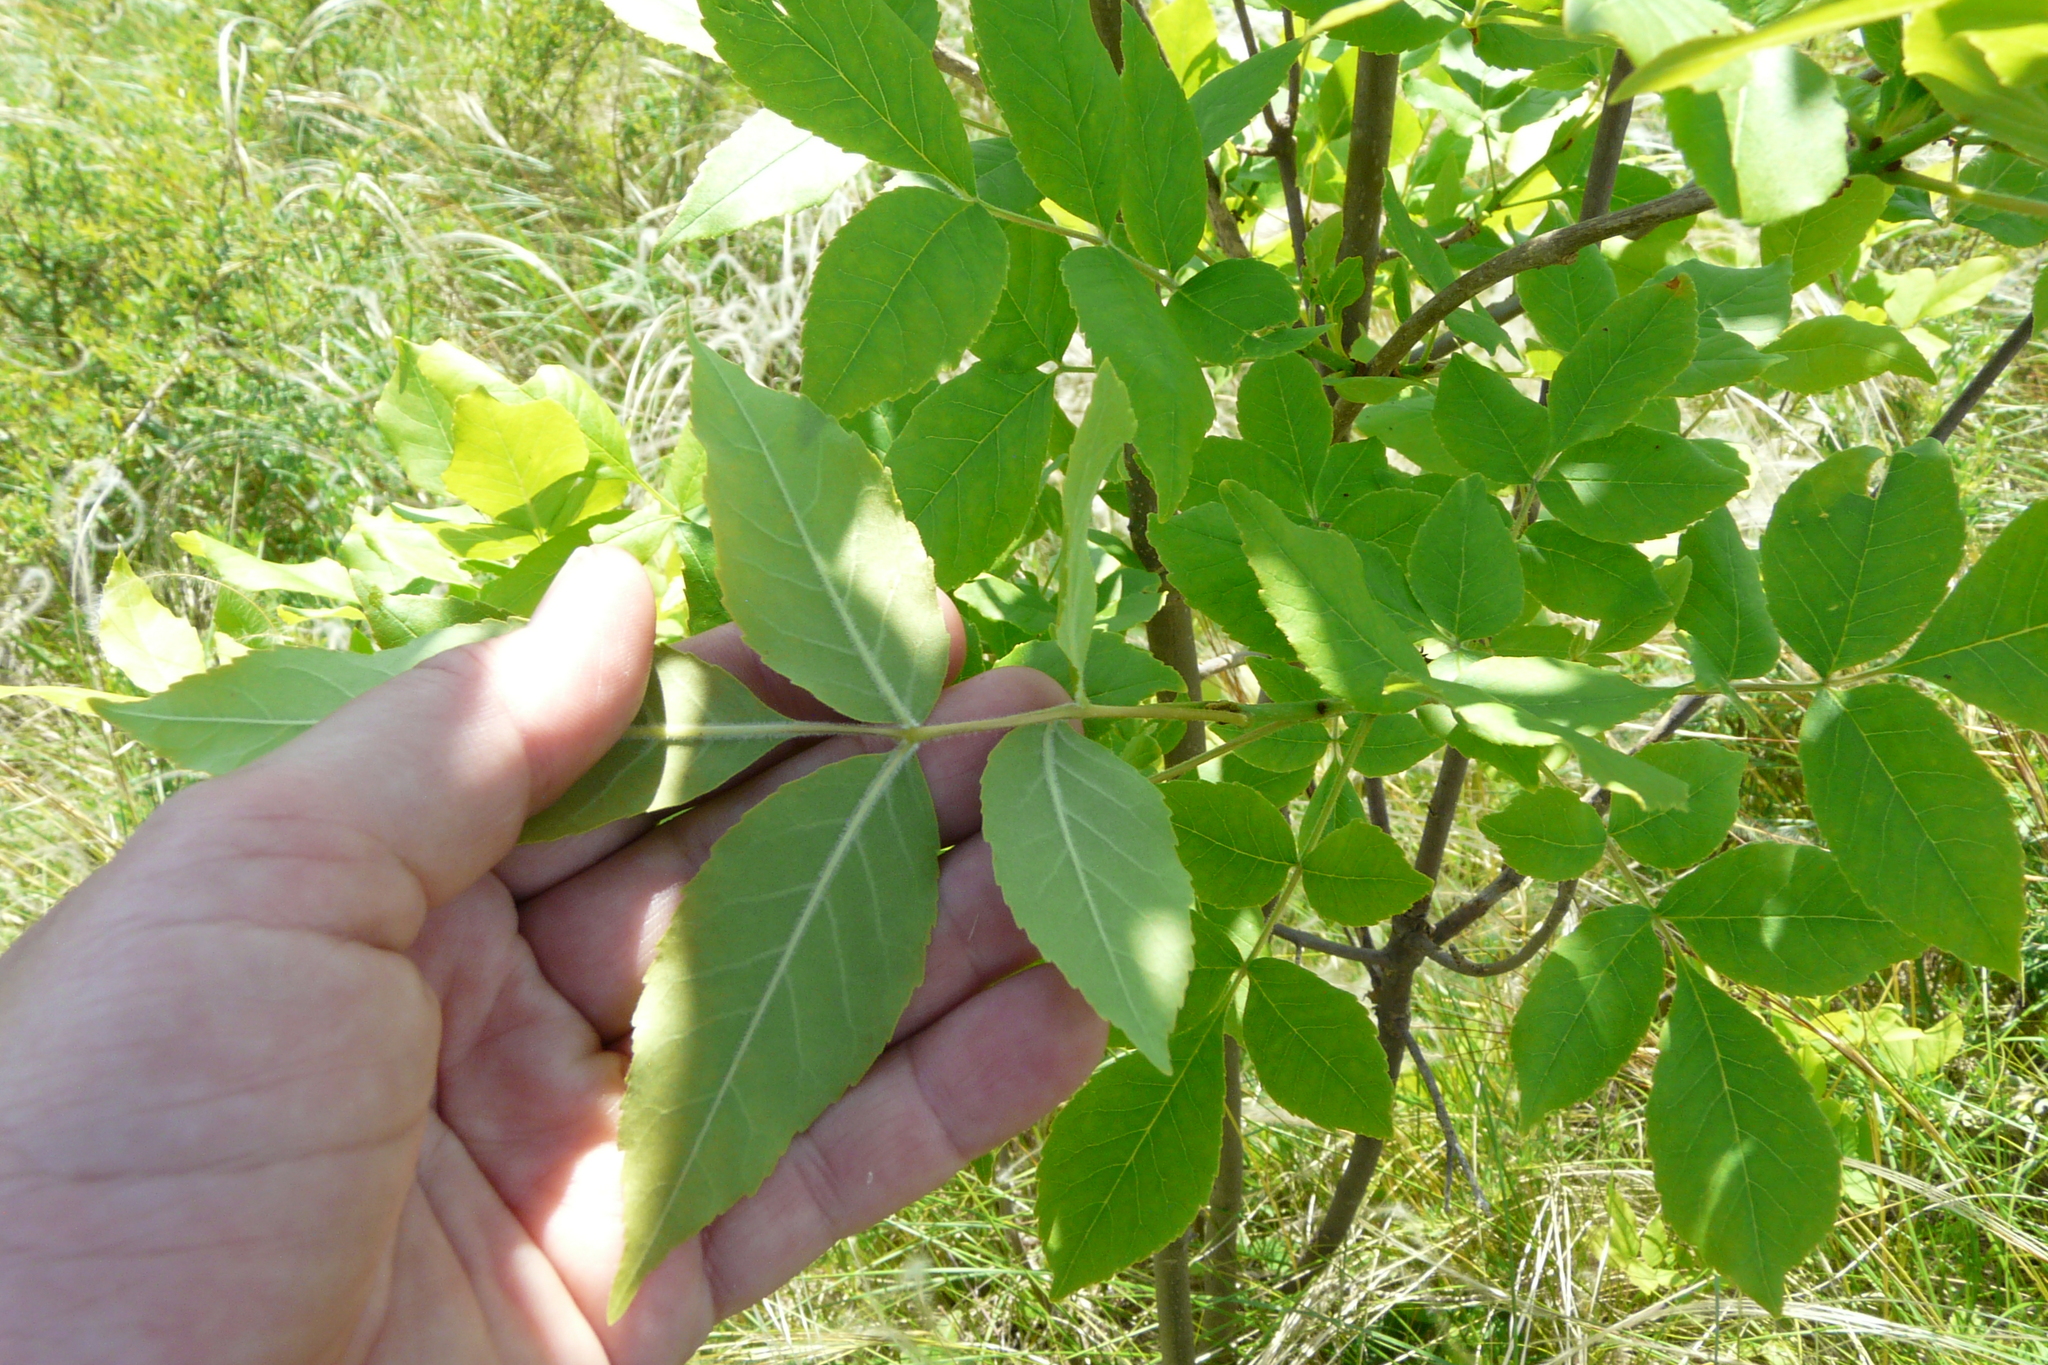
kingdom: Plantae
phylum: Tracheophyta
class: Magnoliopsida
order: Lamiales
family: Oleaceae
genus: Fraxinus
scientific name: Fraxinus pennsylvanica
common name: Green ash
